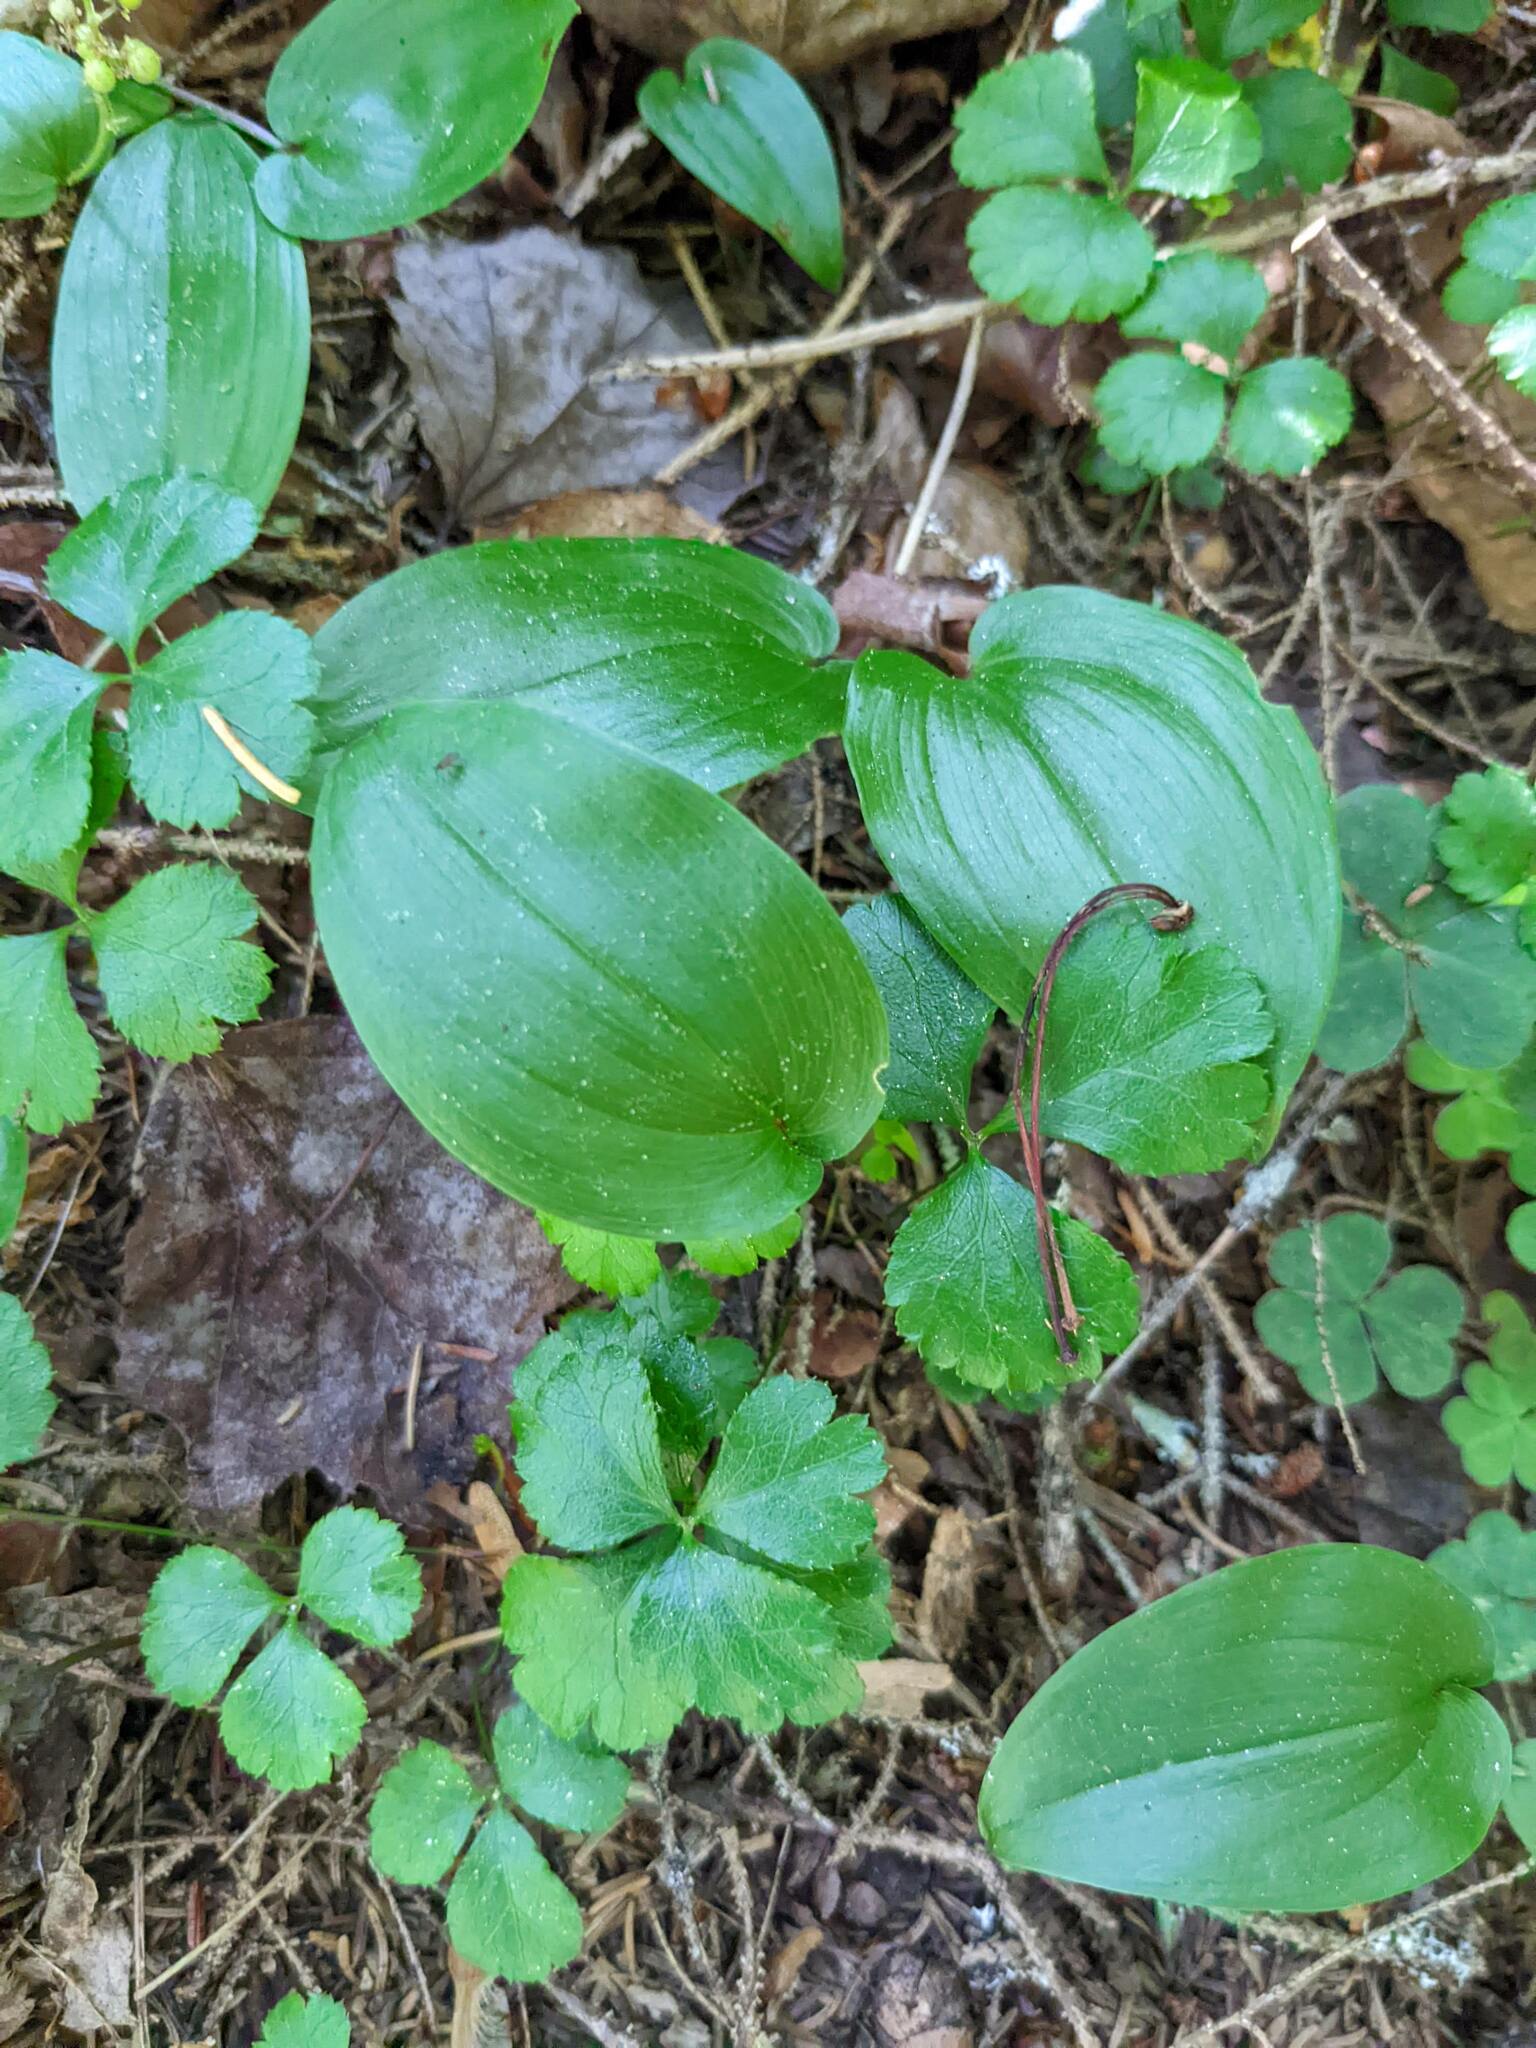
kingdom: Plantae
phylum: Tracheophyta
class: Liliopsida
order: Asparagales
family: Asparagaceae
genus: Maianthemum
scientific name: Maianthemum canadense
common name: False lily-of-the-valley
